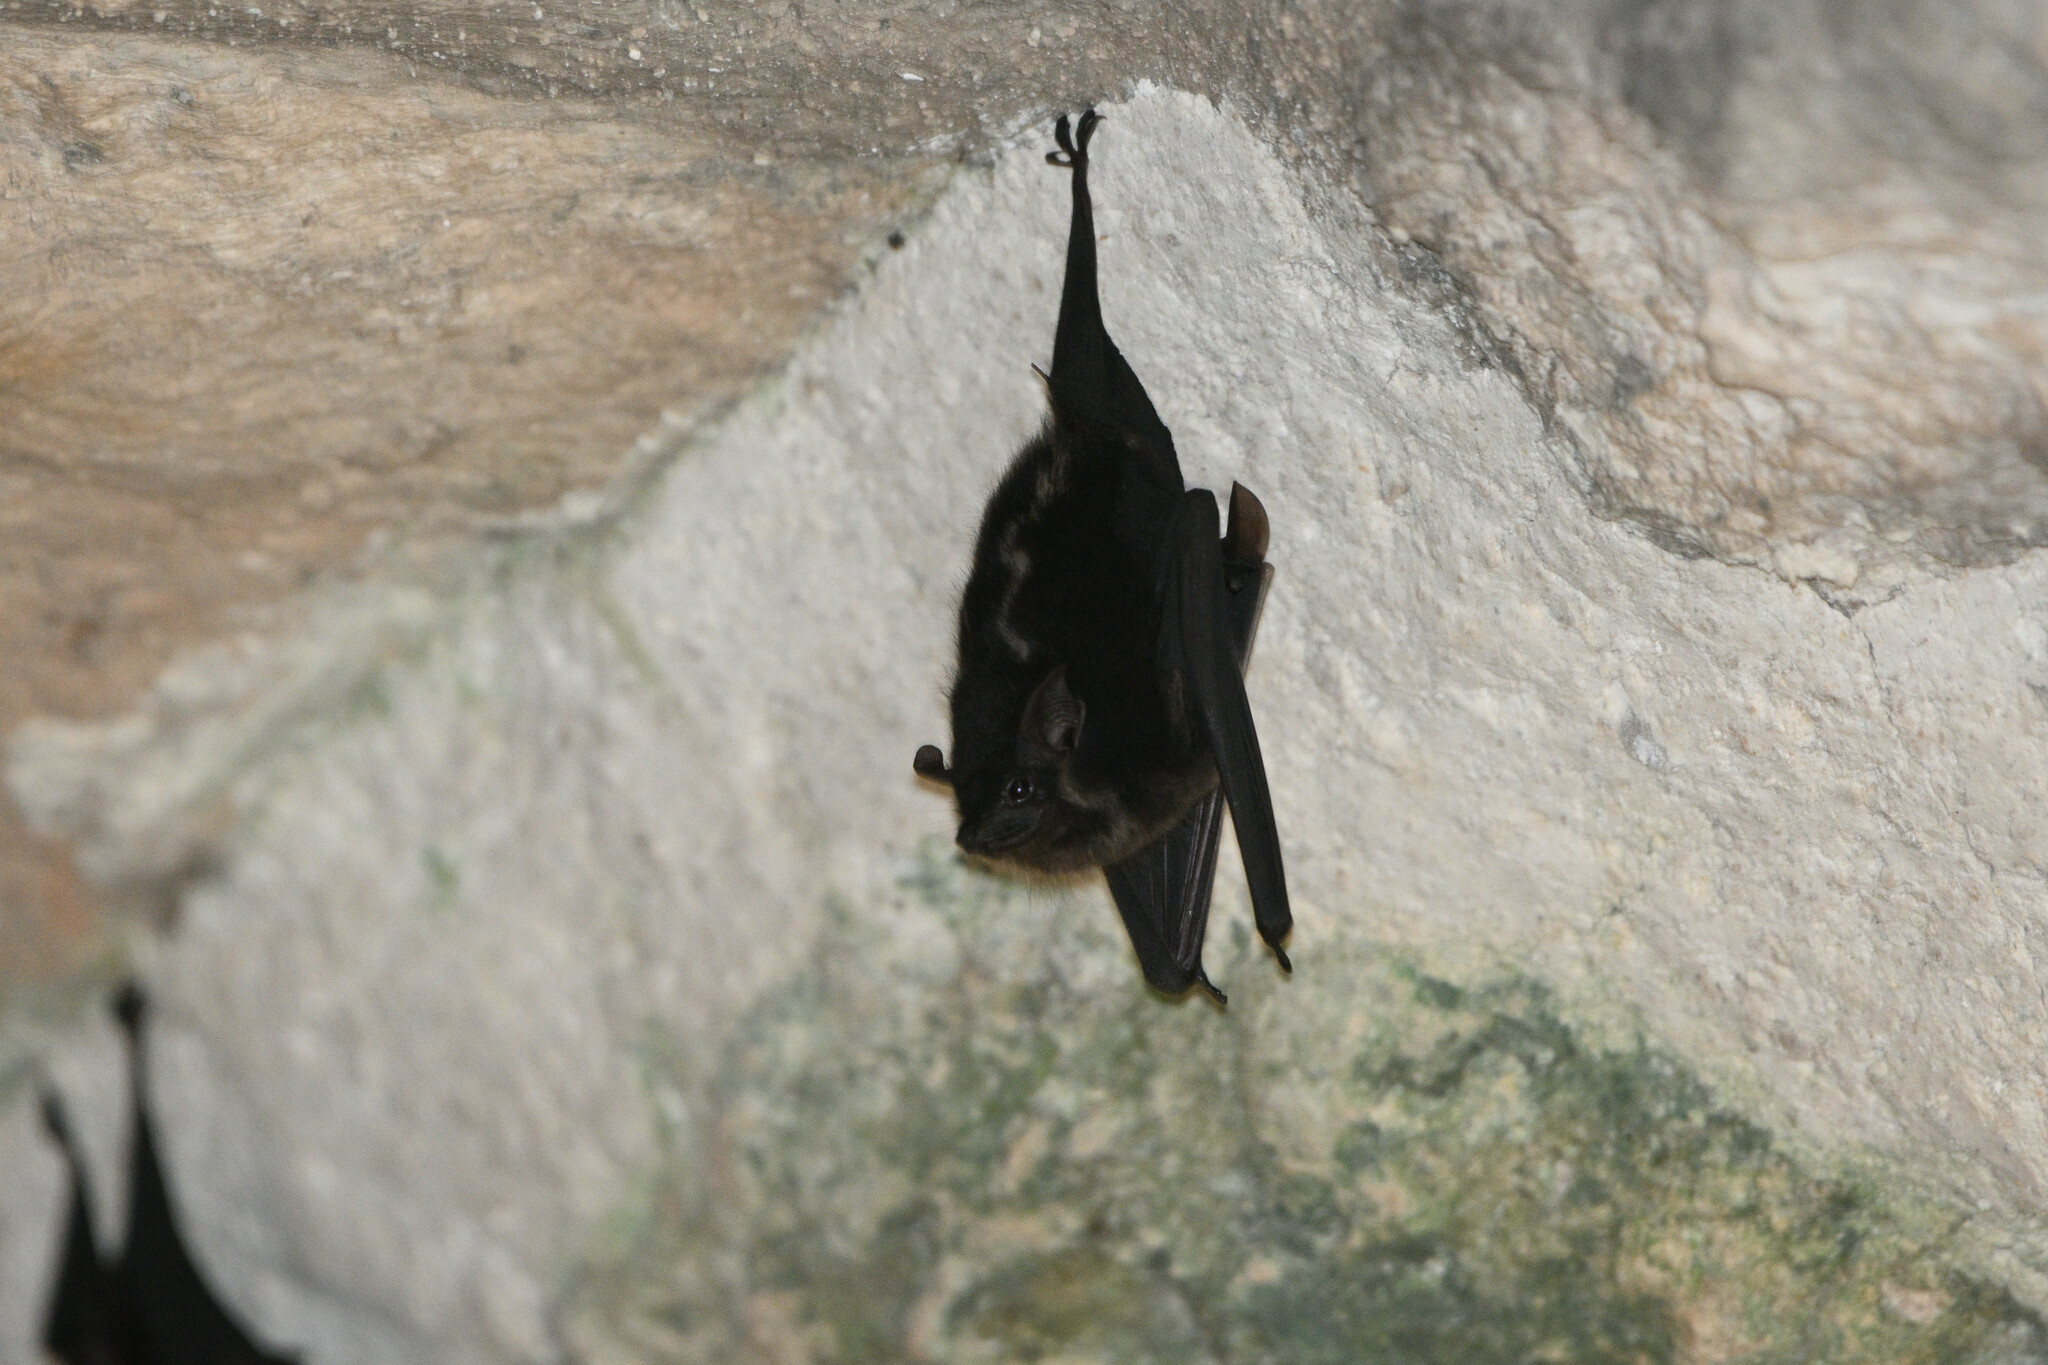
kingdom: Animalia
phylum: Chordata
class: Mammalia
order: Chiroptera
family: Emballonuridae
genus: Saccopteryx
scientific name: Saccopteryx bilineata
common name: Greater sac-winged bat
